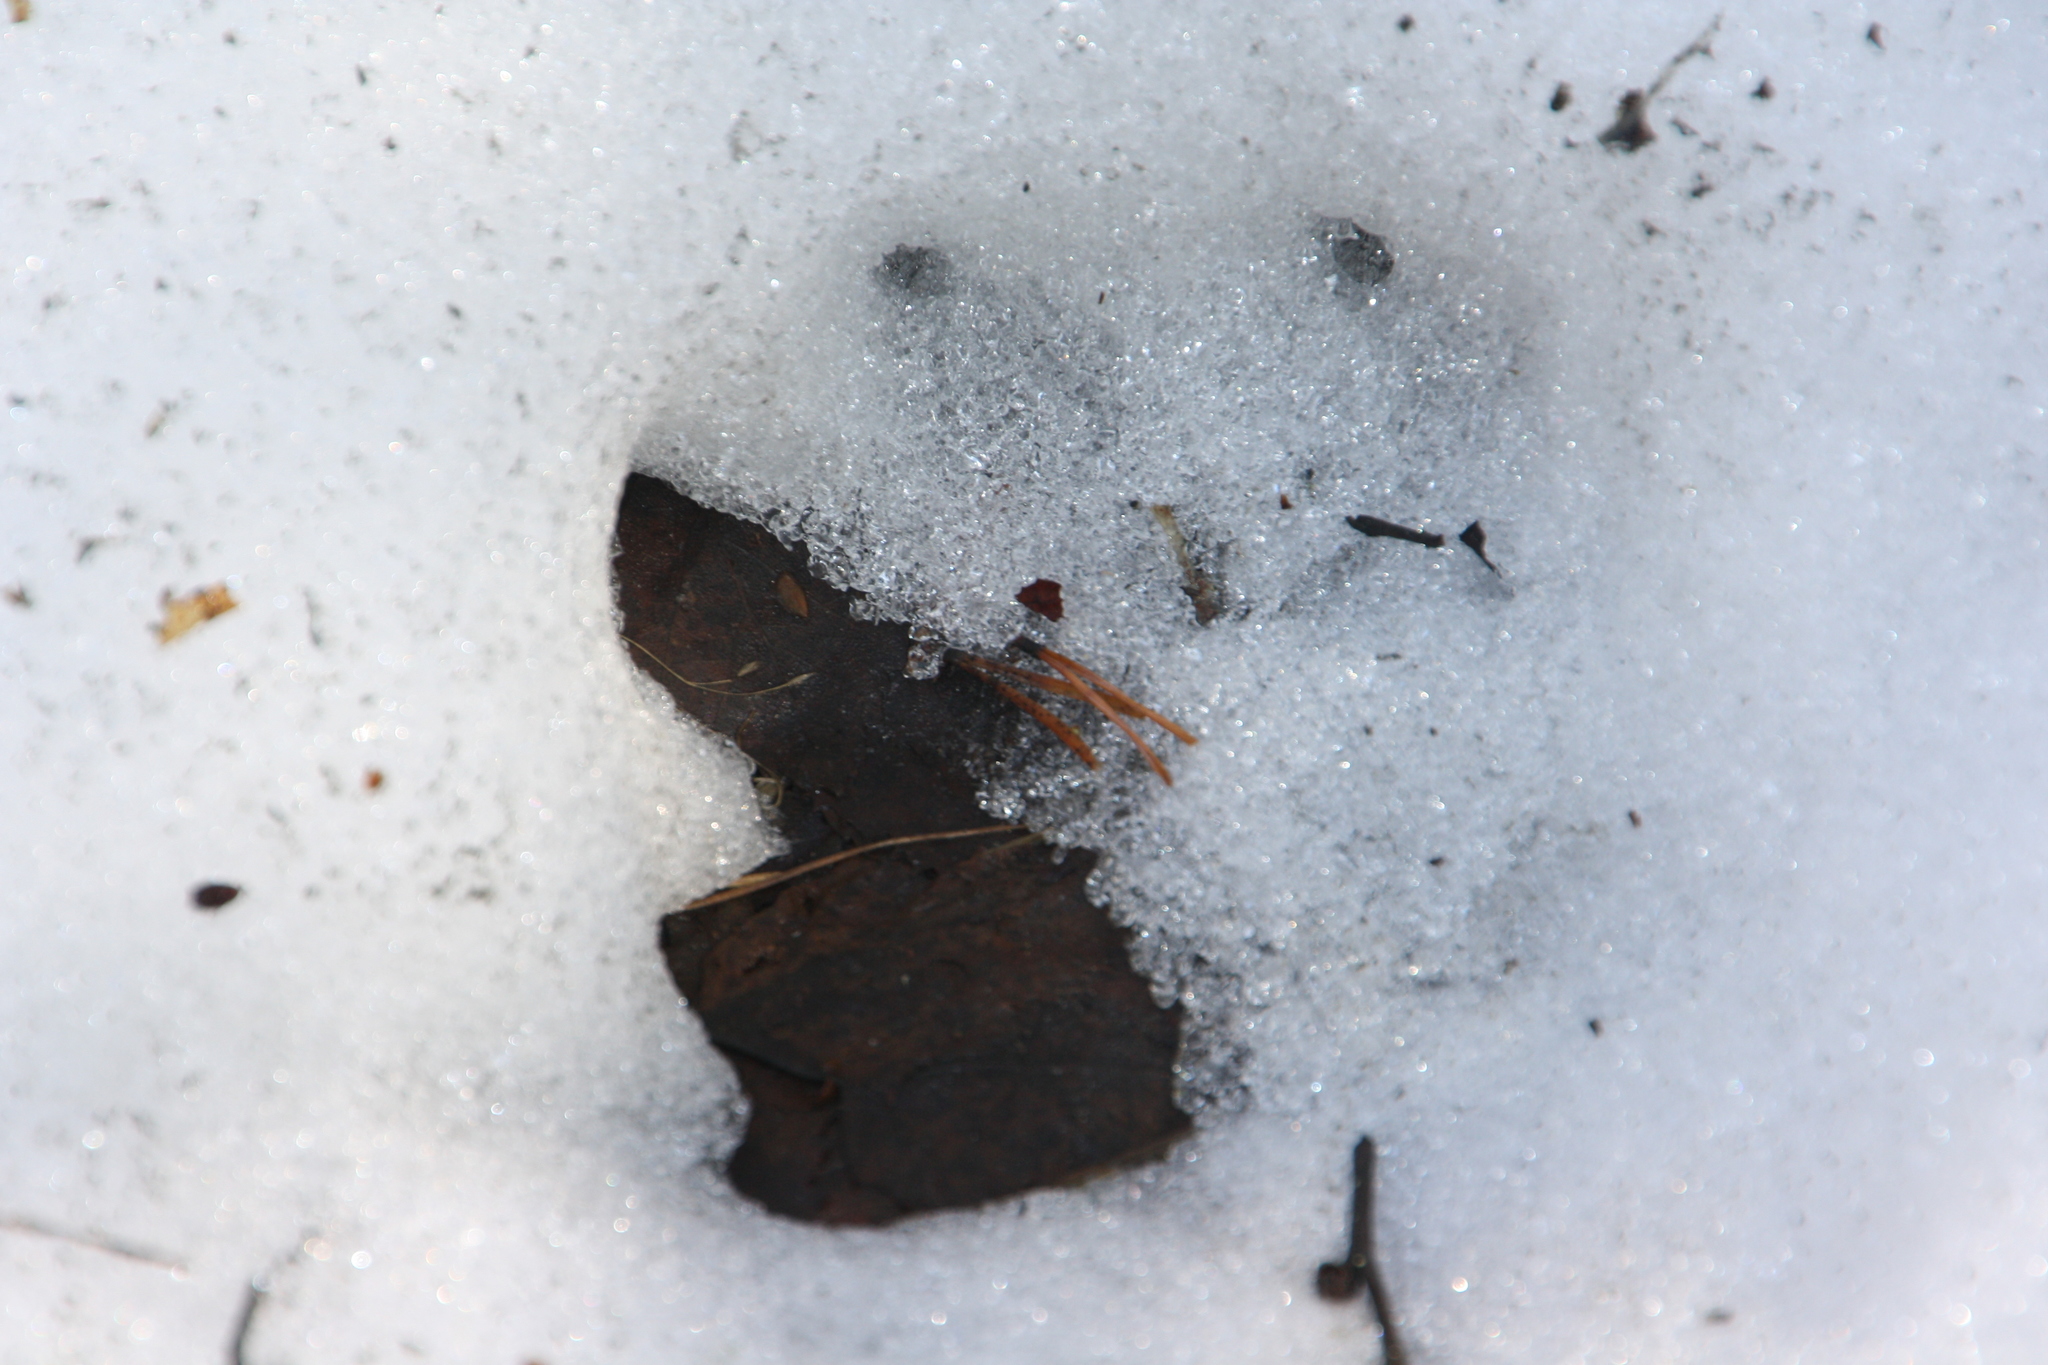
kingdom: Animalia
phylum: Chordata
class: Mammalia
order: Carnivora
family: Canidae
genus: Canis
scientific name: Canis lupus
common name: Gray wolf
